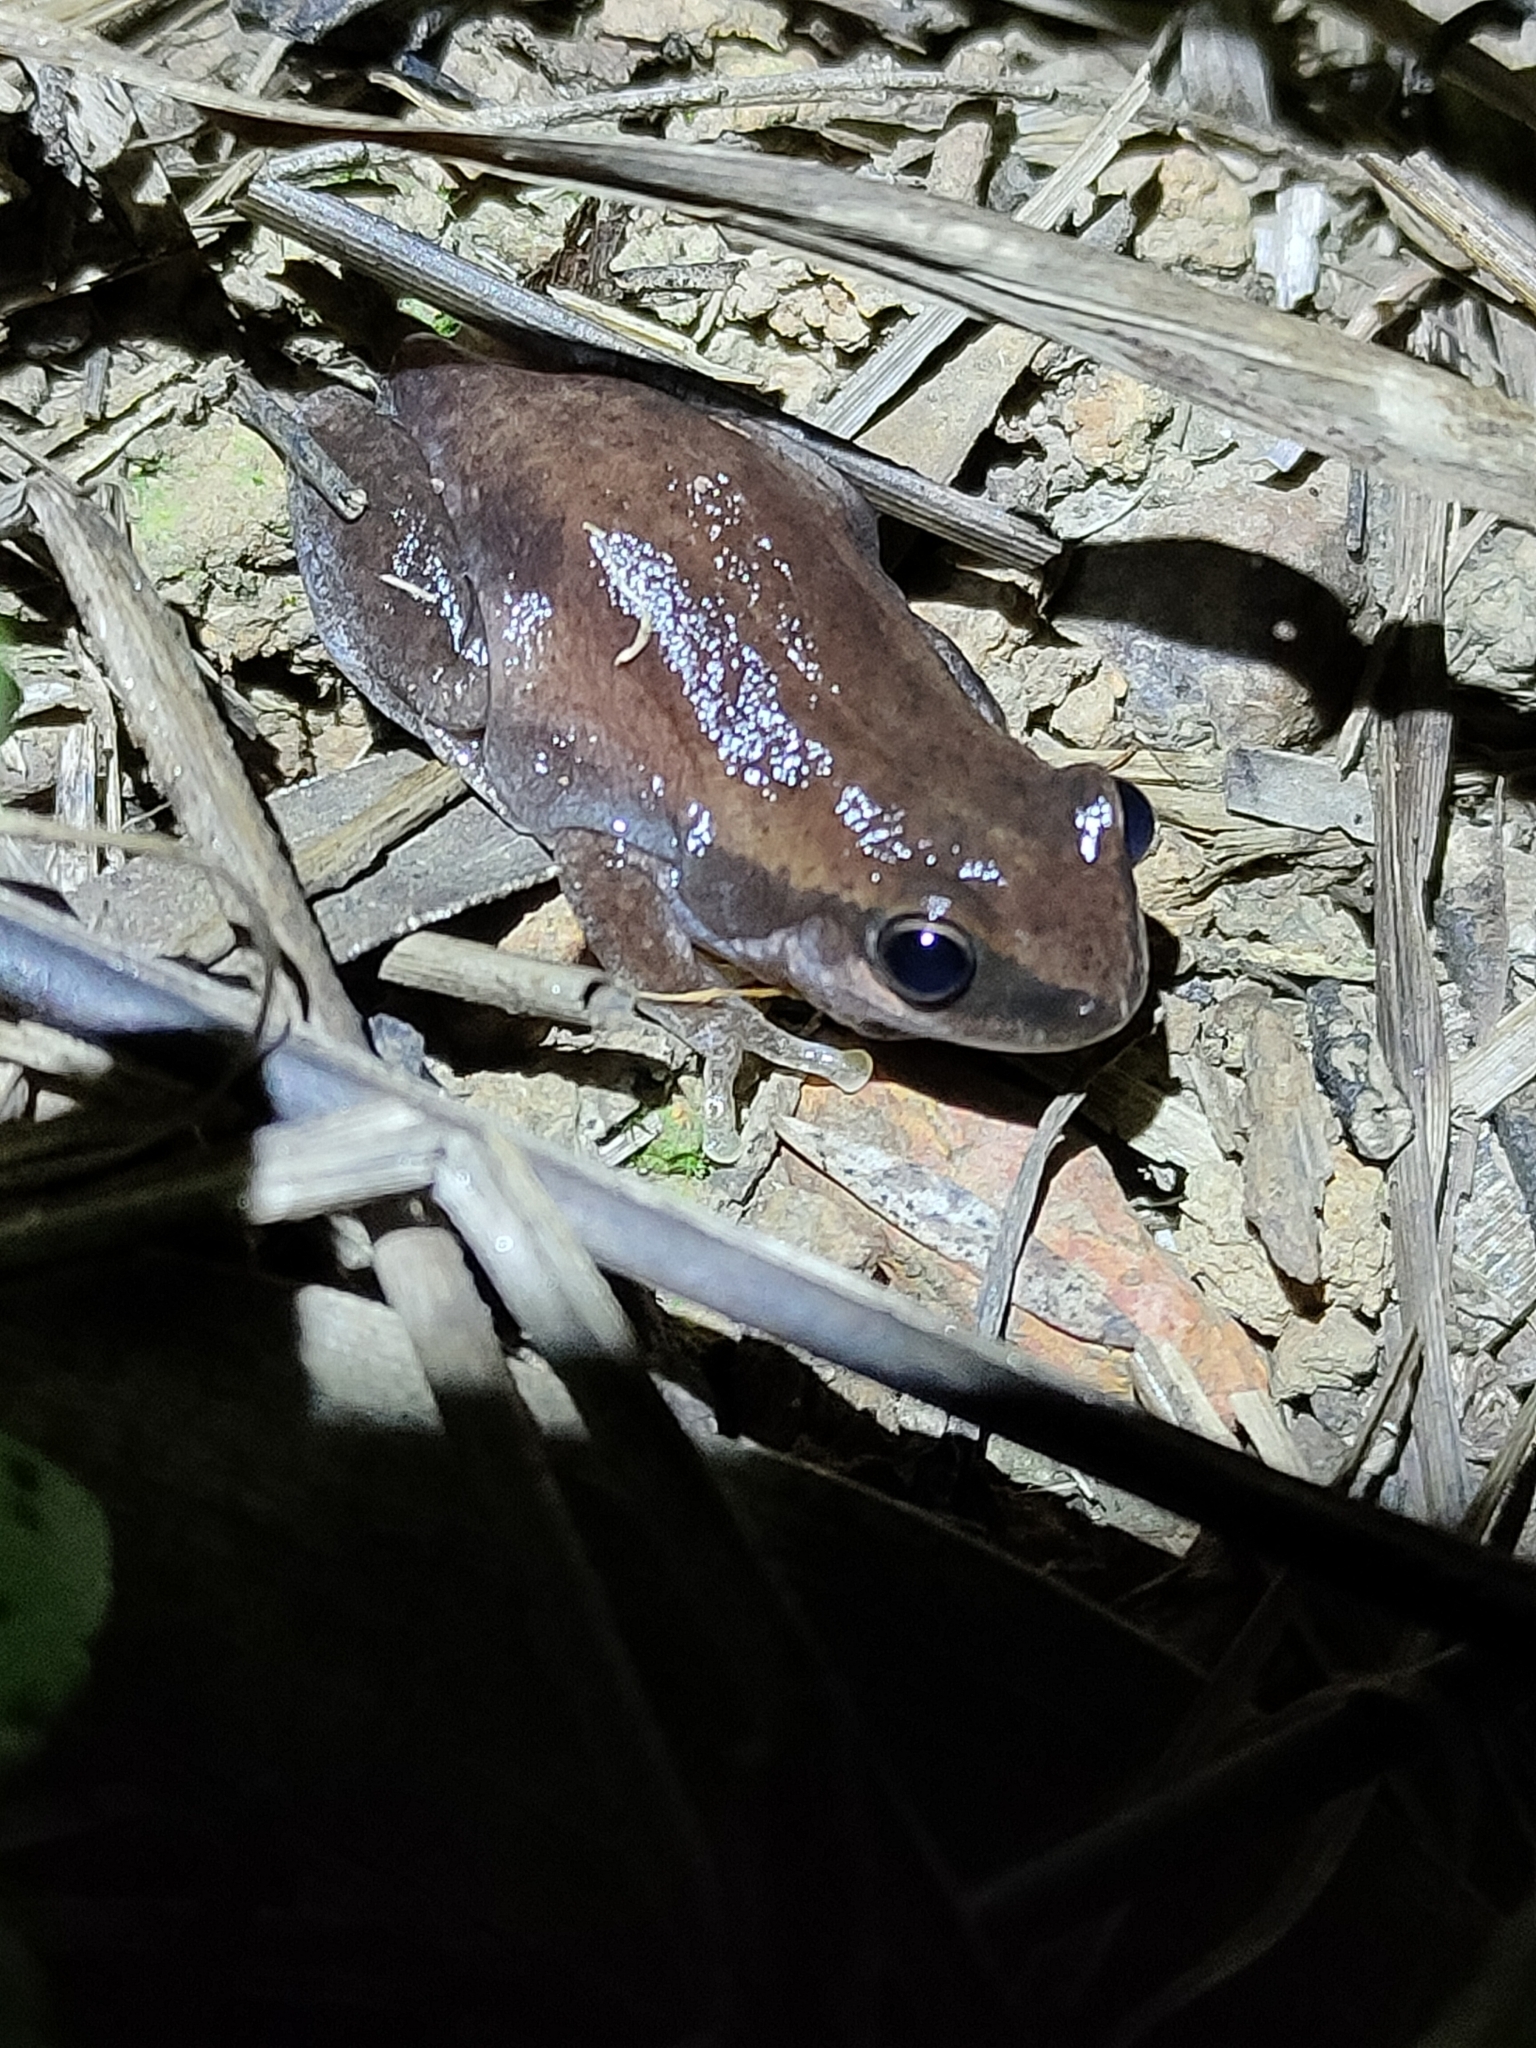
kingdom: Animalia
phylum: Chordata
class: Amphibia
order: Anura
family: Pelodryadidae
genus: Litoria
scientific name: Litoria rubella
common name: Desert tree frog
